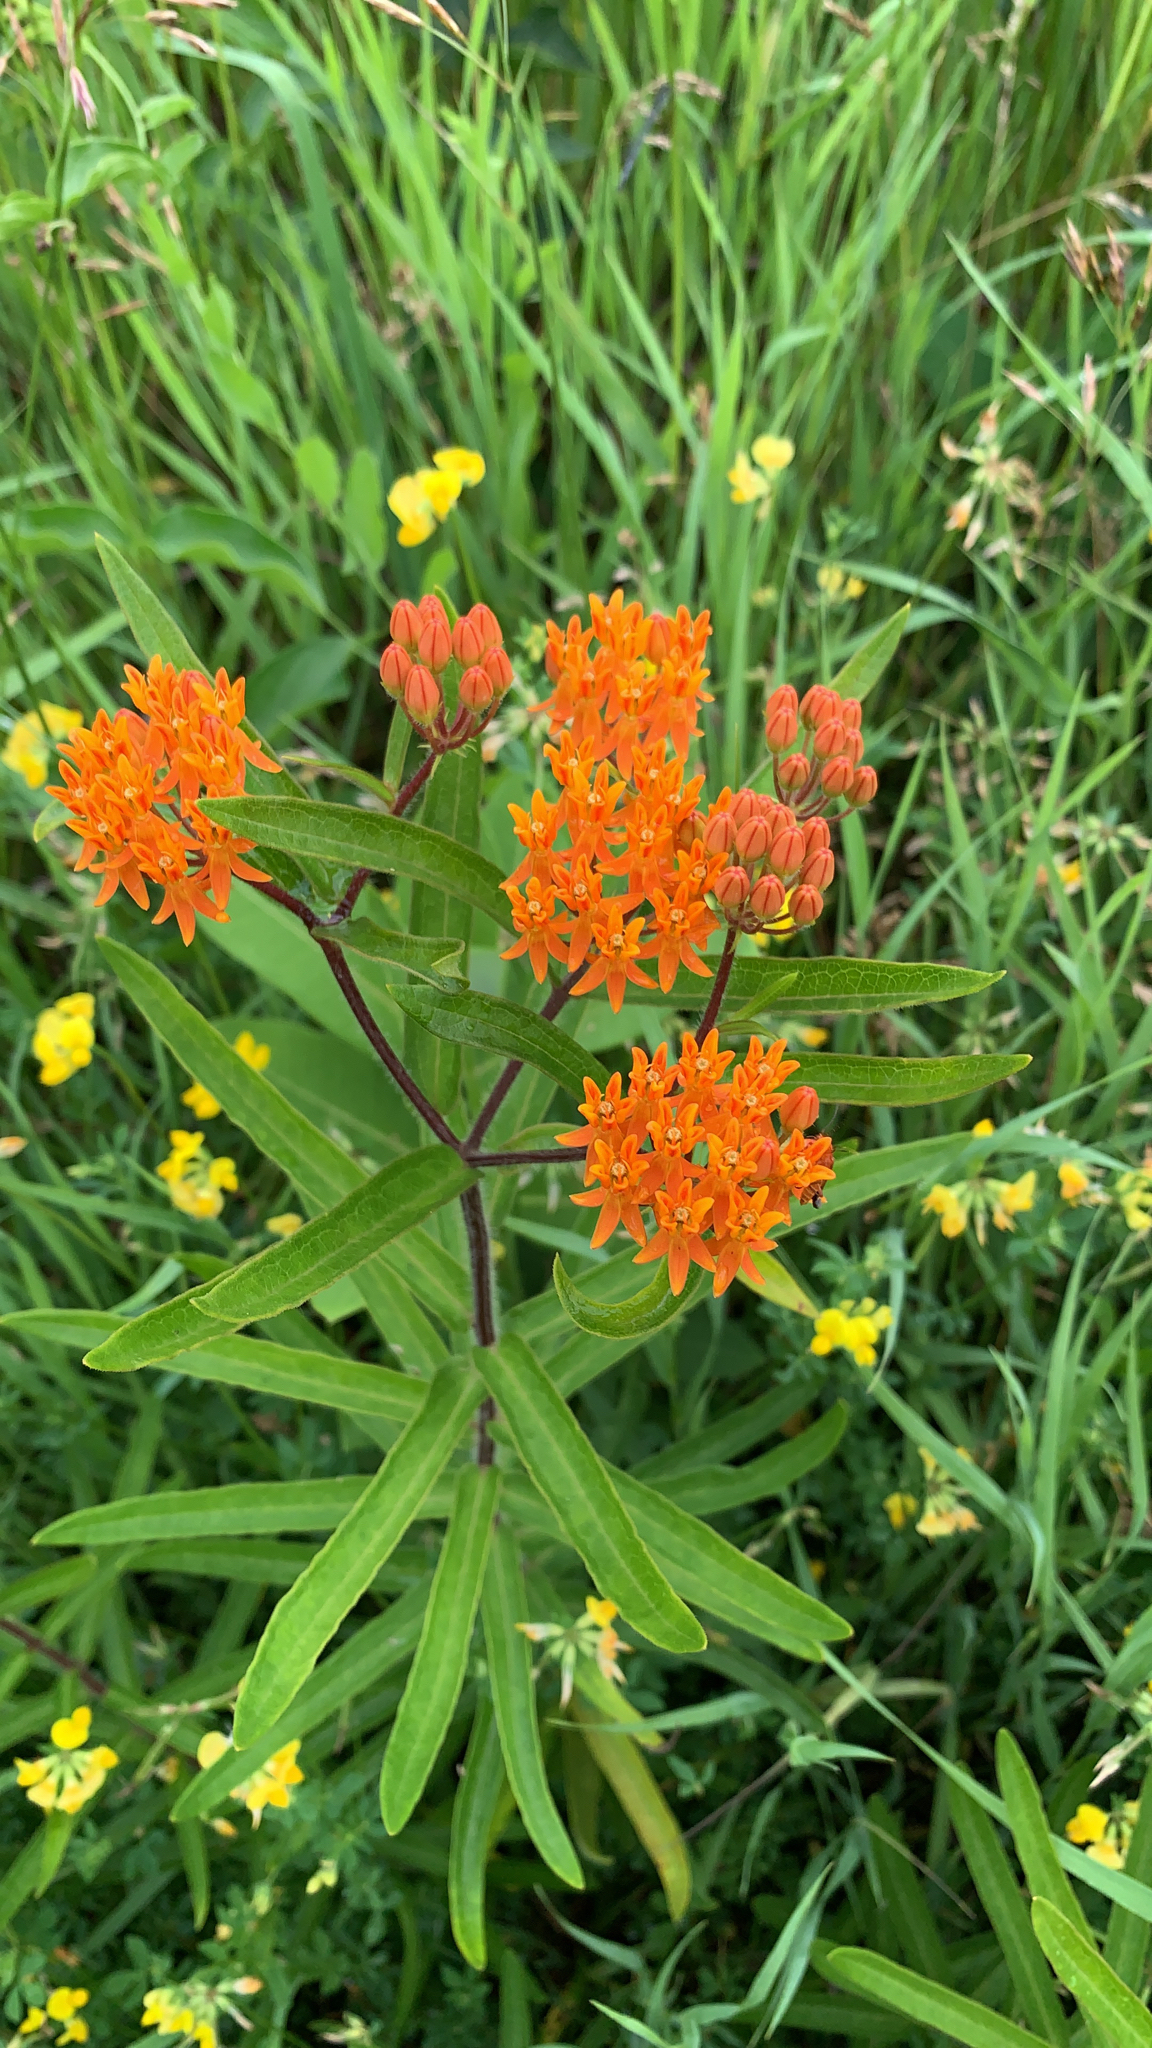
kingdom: Plantae
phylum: Tracheophyta
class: Magnoliopsida
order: Gentianales
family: Apocynaceae
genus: Asclepias
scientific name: Asclepias tuberosa
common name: Butterfly milkweed
